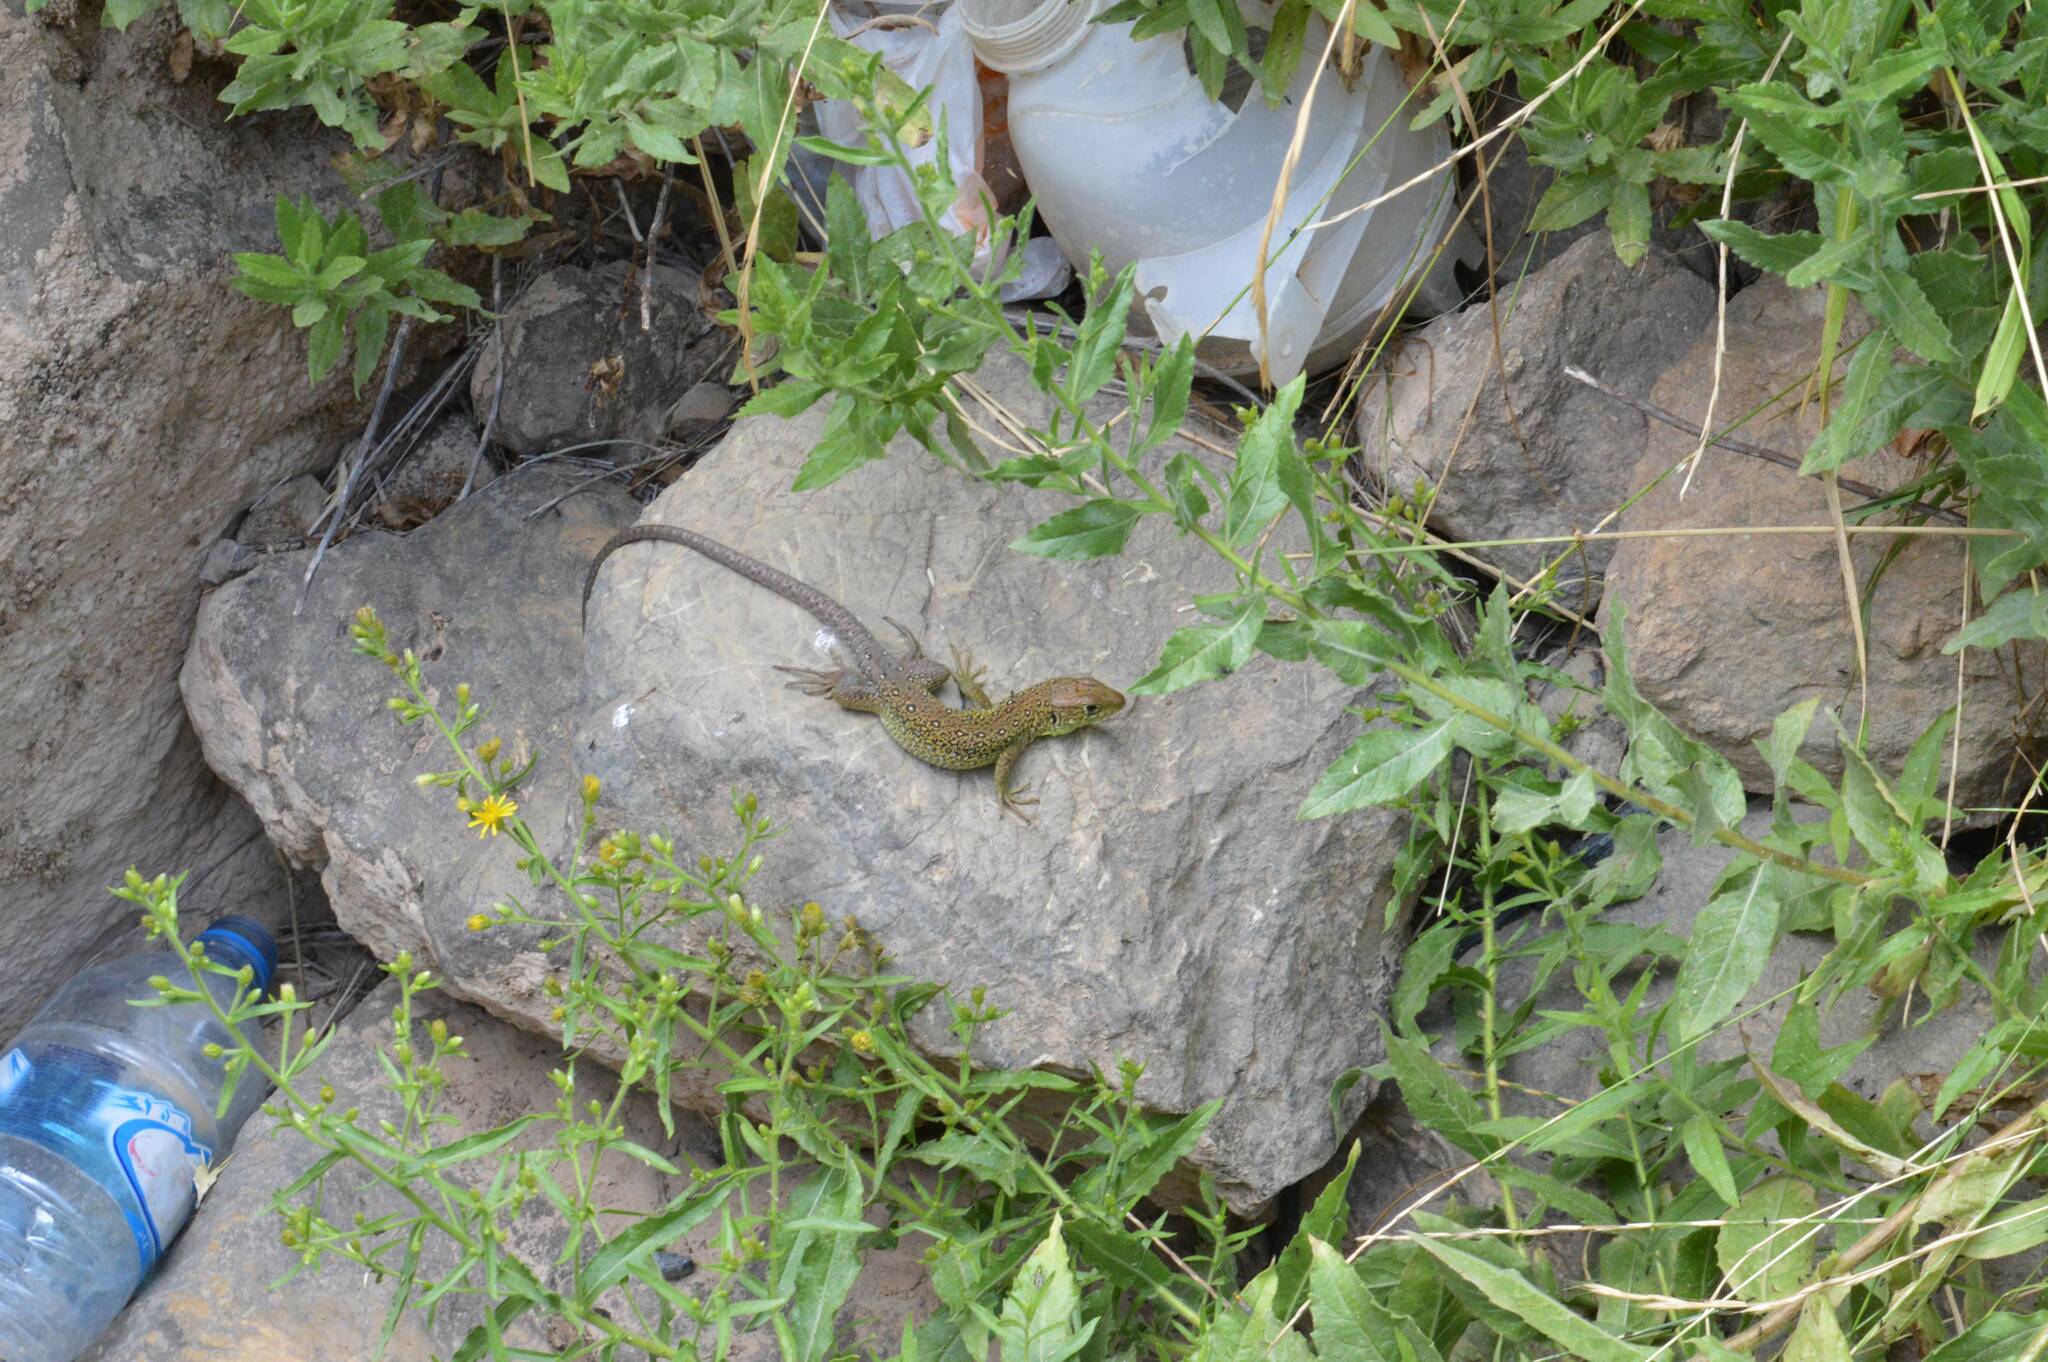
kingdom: Animalia
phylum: Chordata
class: Squamata
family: Lacertidae
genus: Timon
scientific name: Timon pater
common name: North african ocellated lizard
